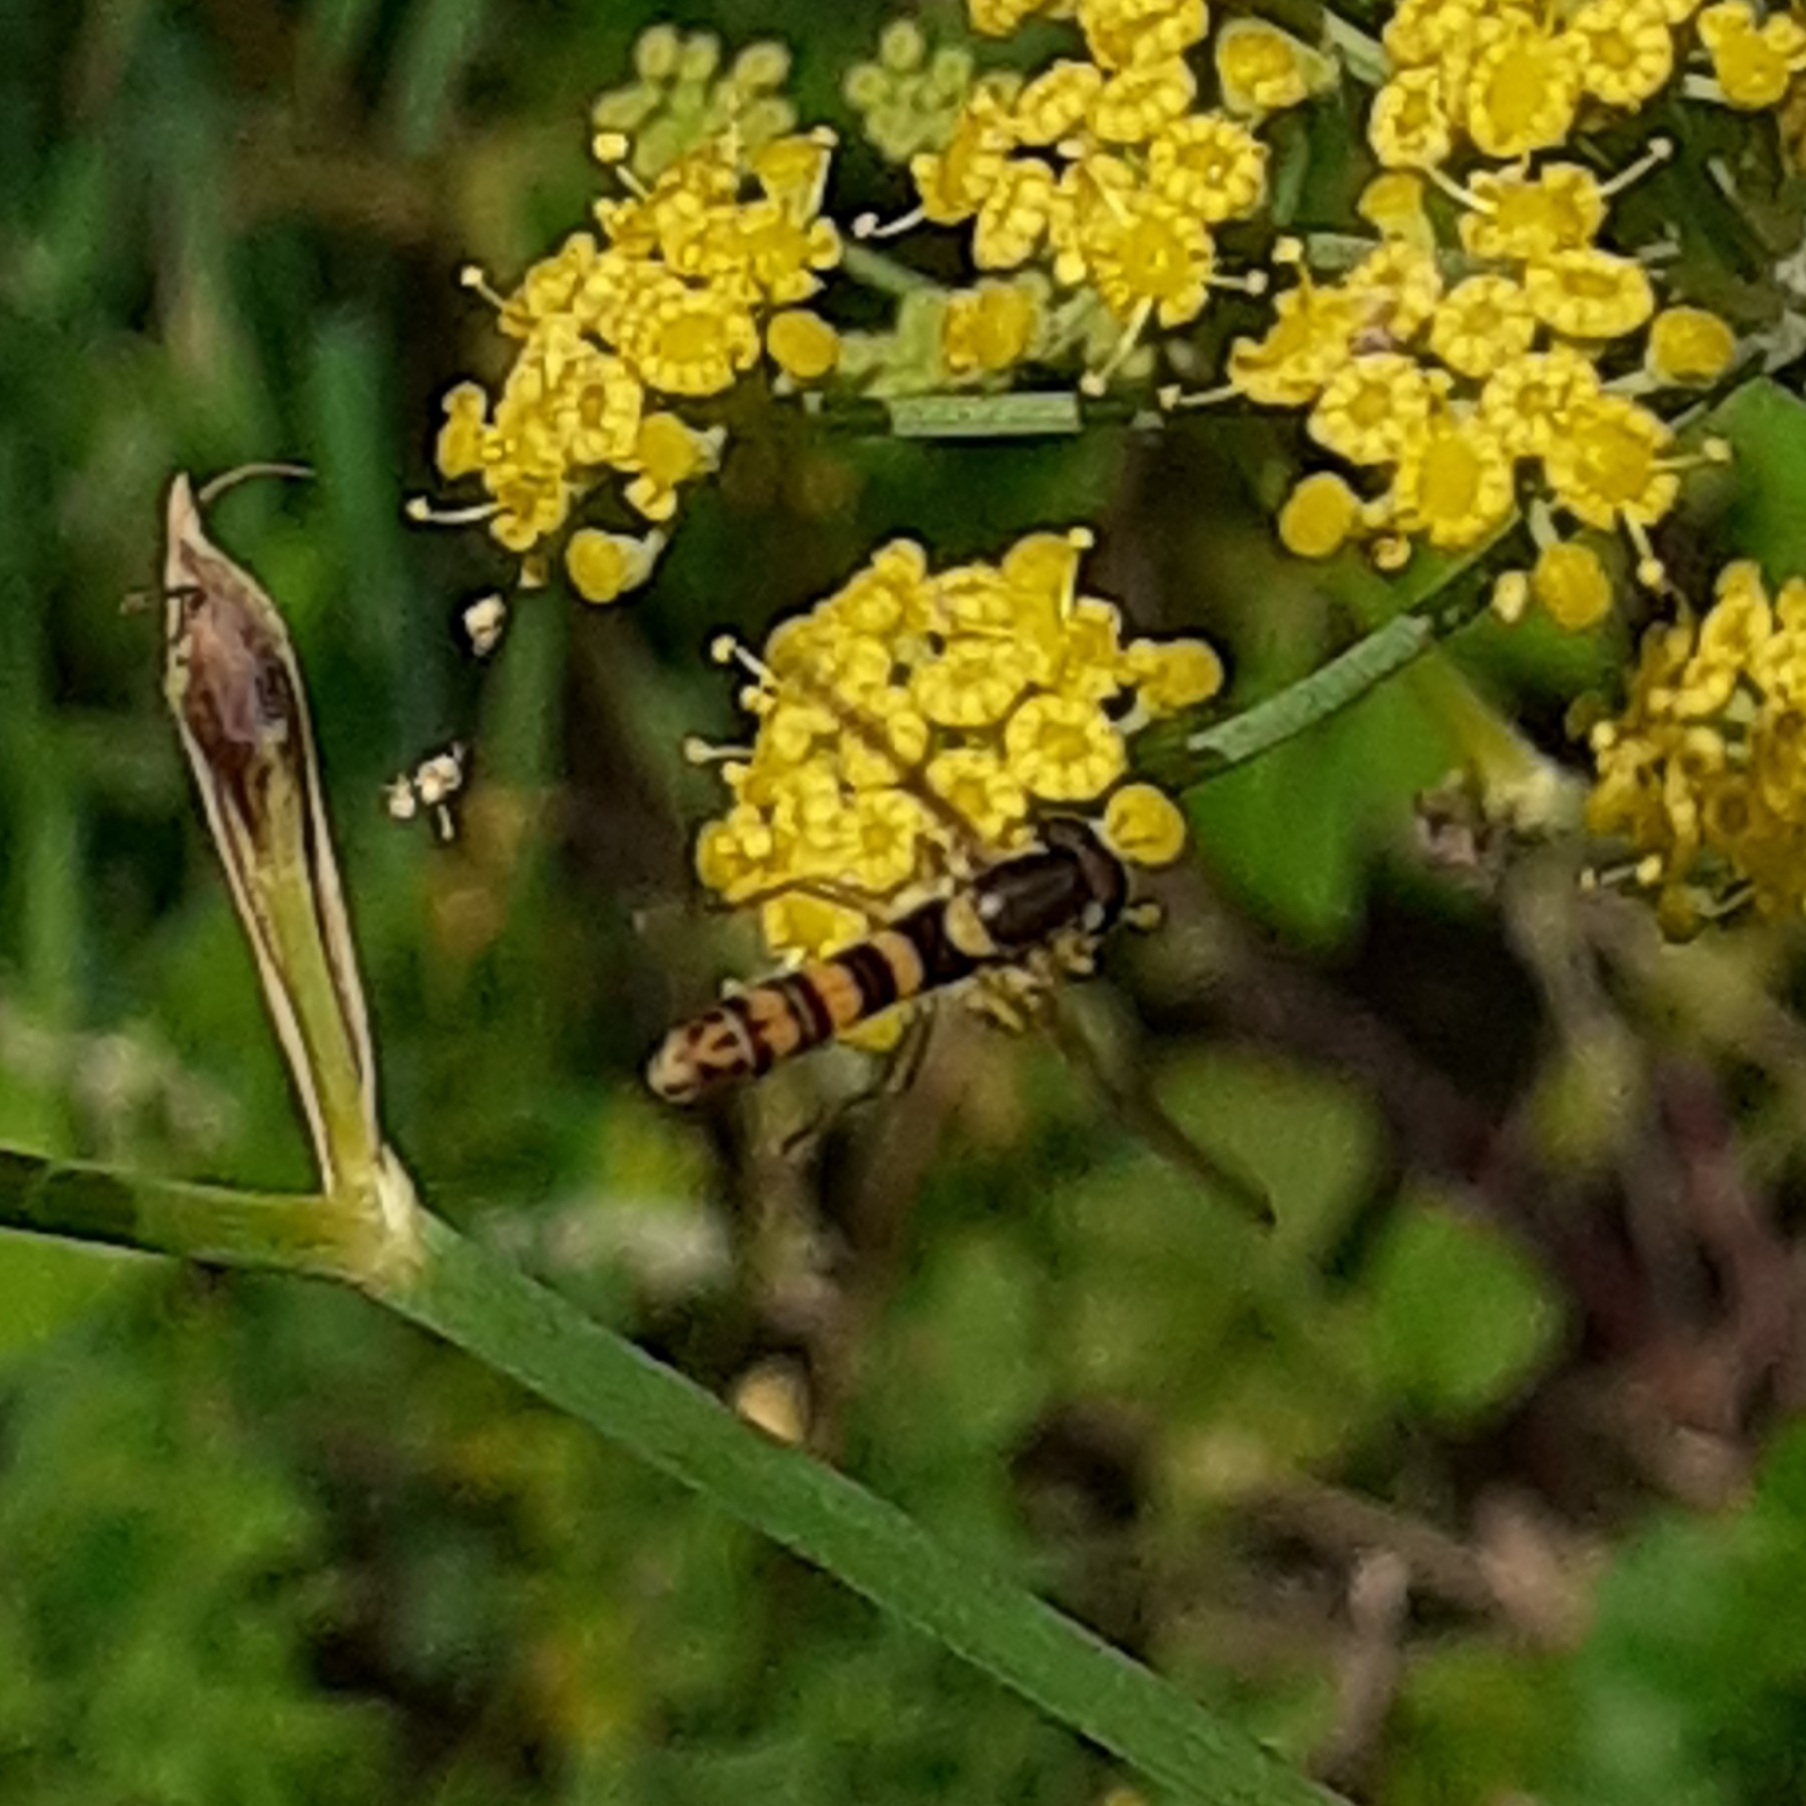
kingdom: Animalia
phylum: Arthropoda
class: Insecta
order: Diptera
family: Syrphidae
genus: Sphaerophoria
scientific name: Sphaerophoria
